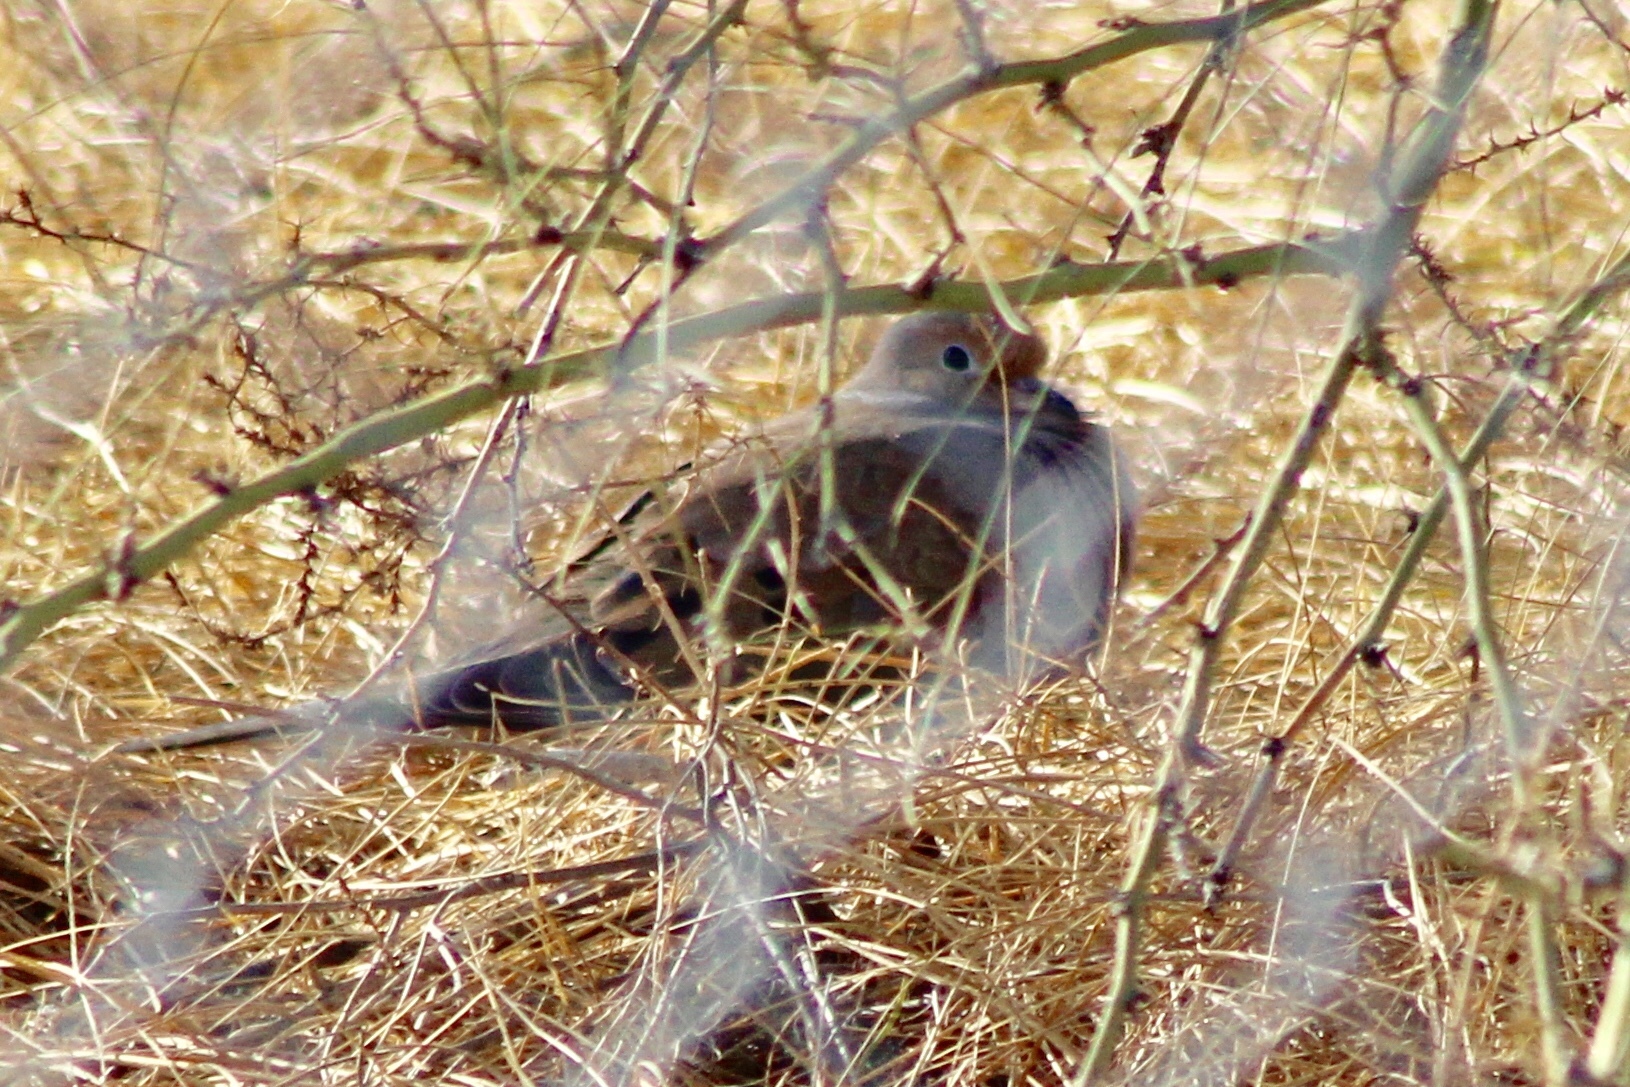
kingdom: Animalia
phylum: Chordata
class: Aves
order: Columbiformes
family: Columbidae
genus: Zenaida
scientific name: Zenaida macroura
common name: Mourning dove
